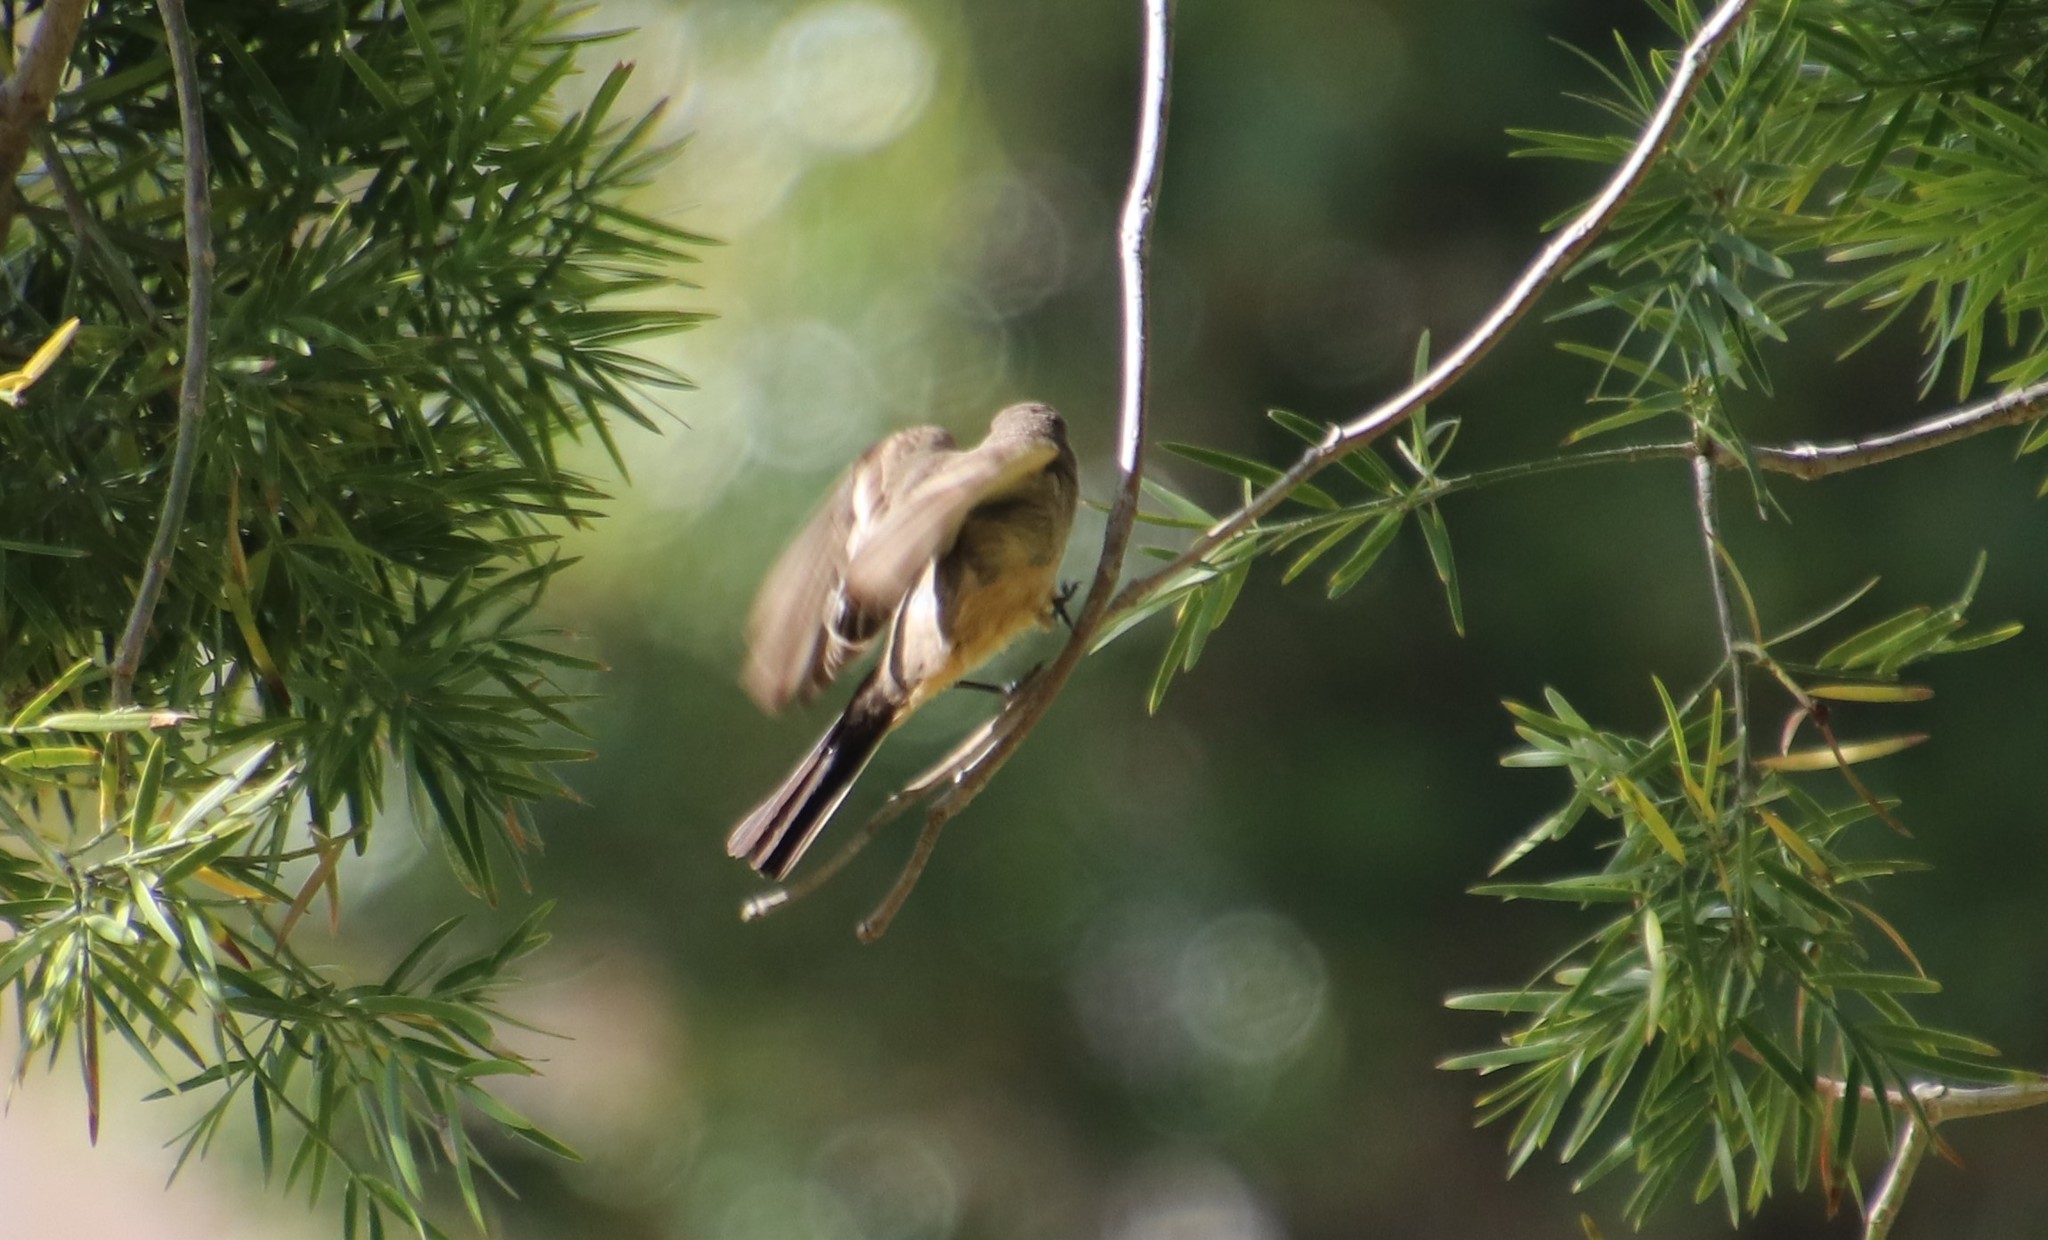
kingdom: Animalia
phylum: Chordata
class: Aves
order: Passeriformes
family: Tyrannidae
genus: Sayornis
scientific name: Sayornis saya
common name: Say's phoebe
